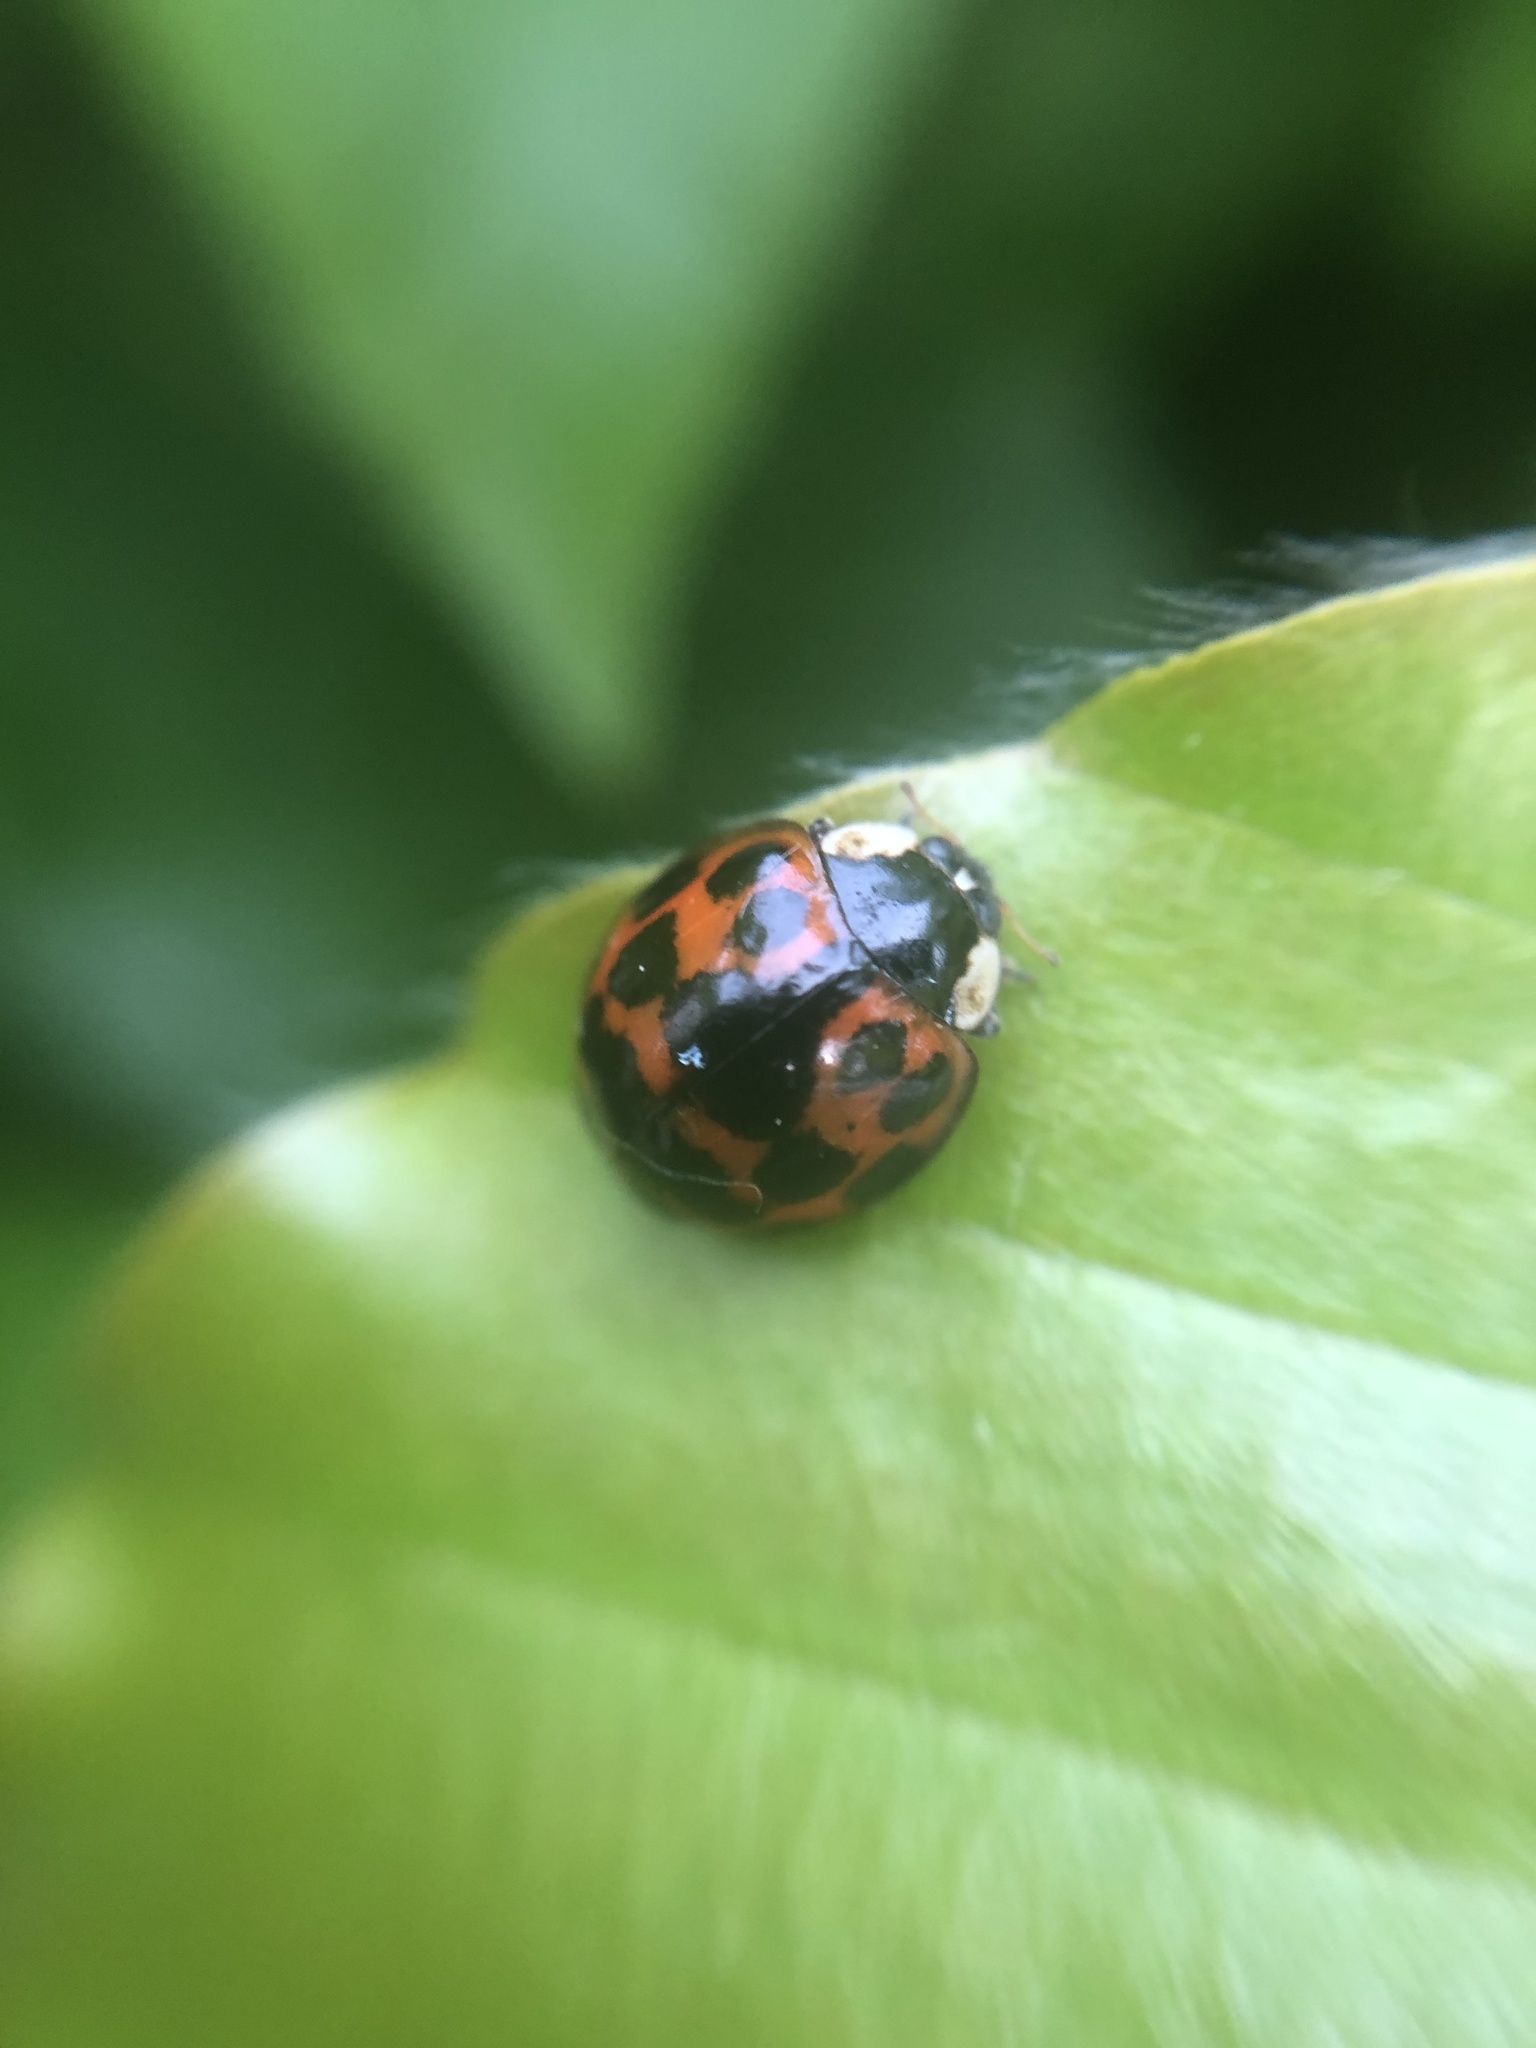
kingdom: Animalia
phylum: Arthropoda
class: Insecta
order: Coleoptera
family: Coccinellidae
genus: Harmonia
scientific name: Harmonia axyridis
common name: Harlequin ladybird
